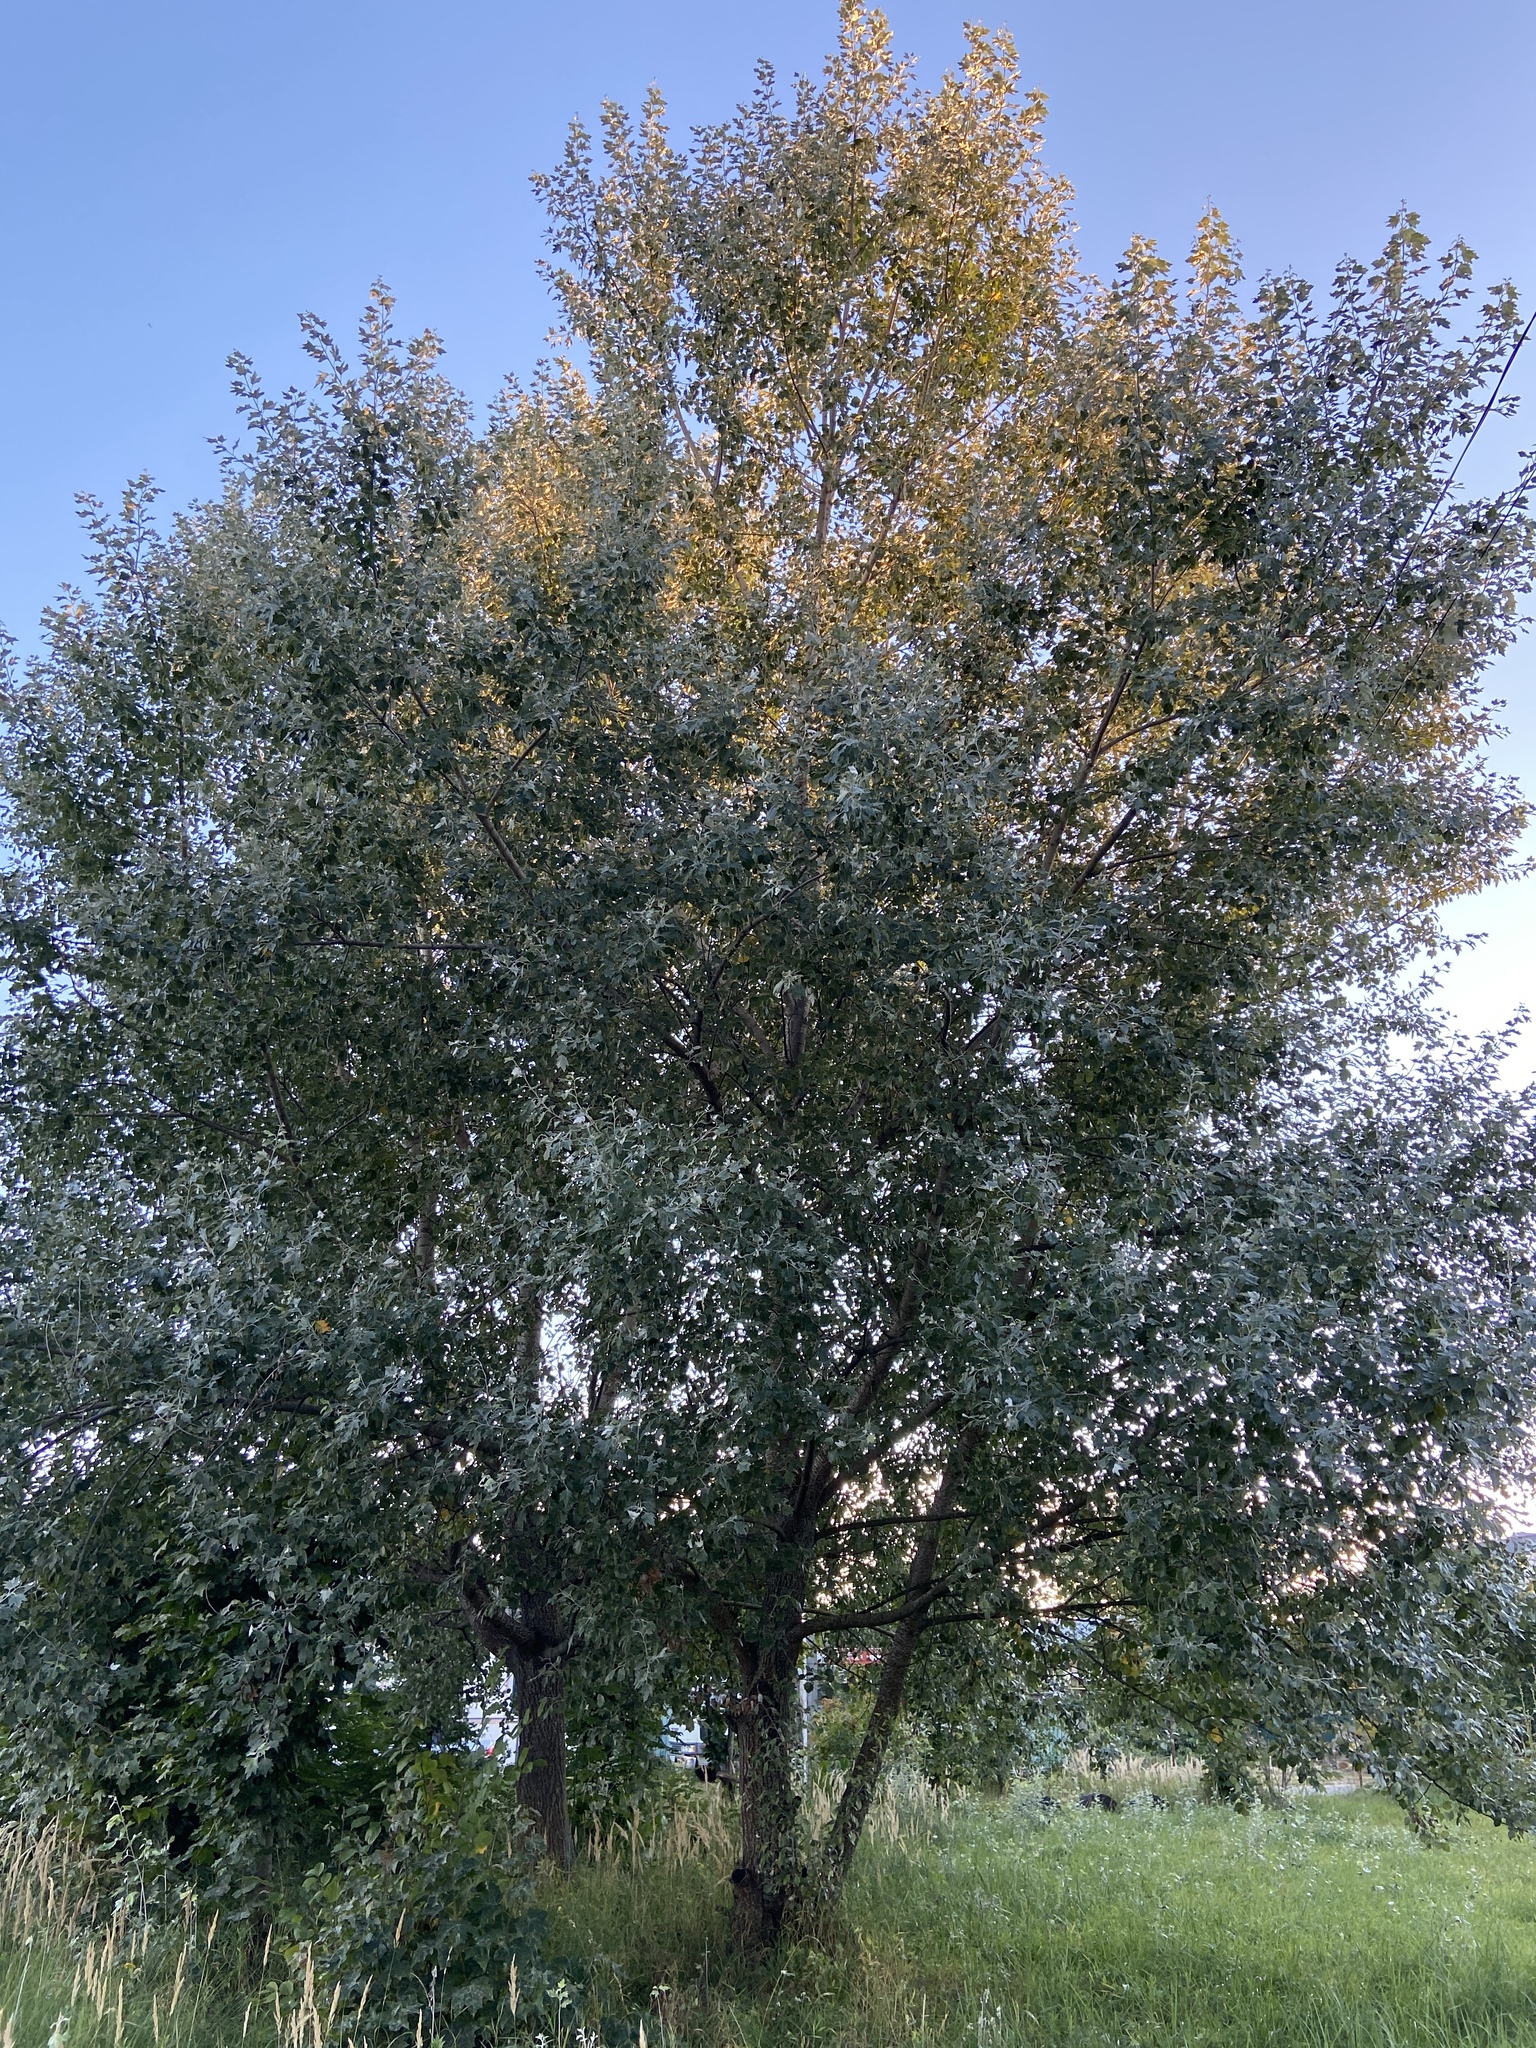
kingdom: Plantae
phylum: Tracheophyta
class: Magnoliopsida
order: Malpighiales
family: Salicaceae
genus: Populus
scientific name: Populus alba
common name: White poplar
